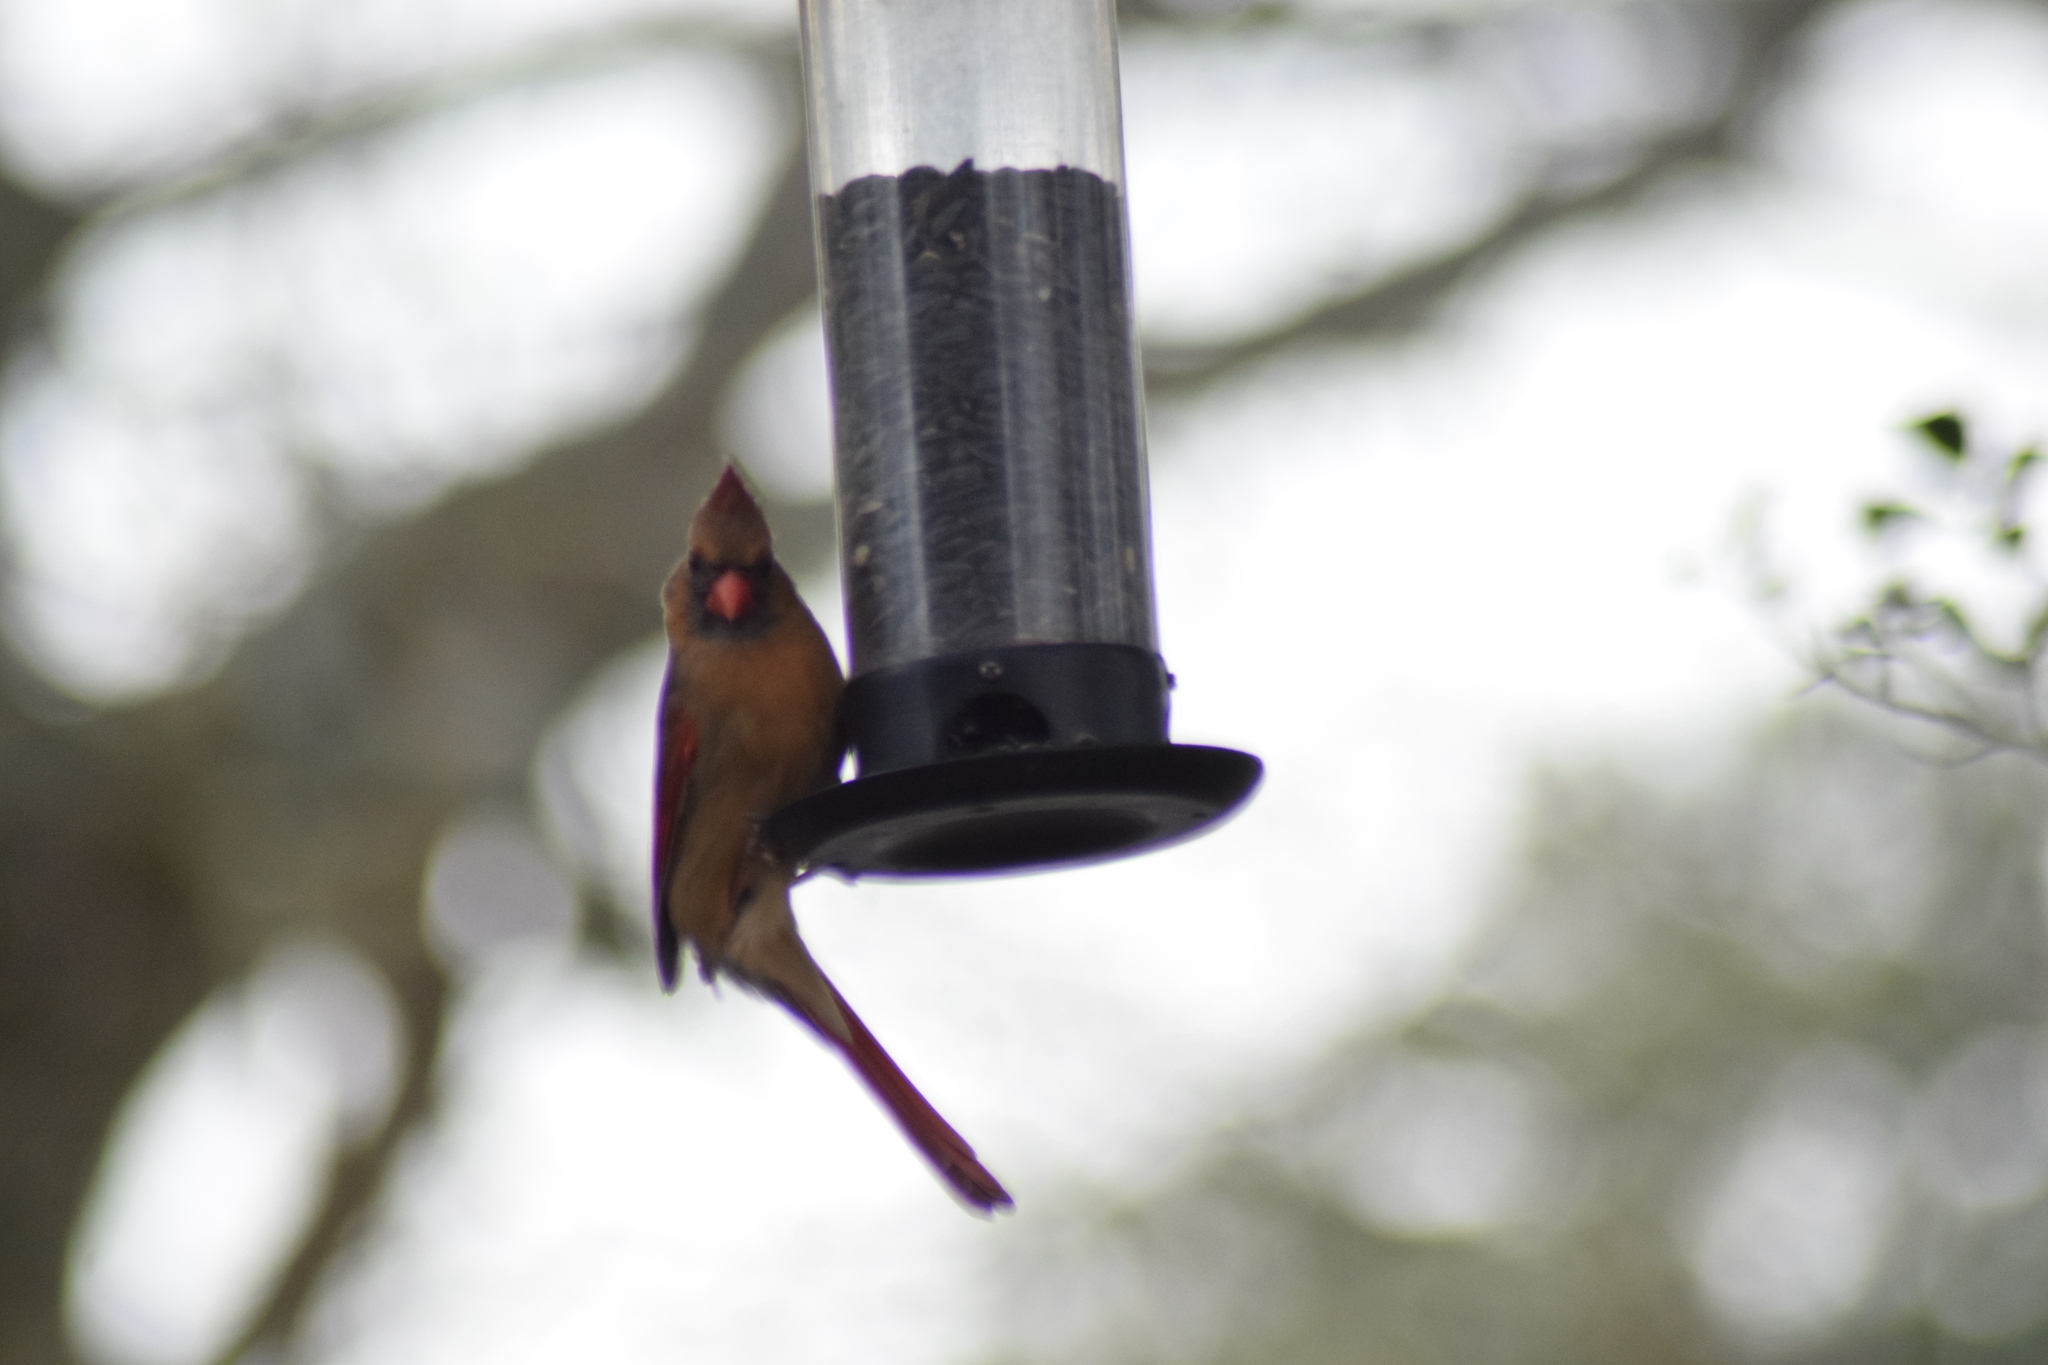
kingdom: Animalia
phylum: Chordata
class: Aves
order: Passeriformes
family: Cardinalidae
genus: Cardinalis
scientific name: Cardinalis cardinalis
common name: Northern cardinal
